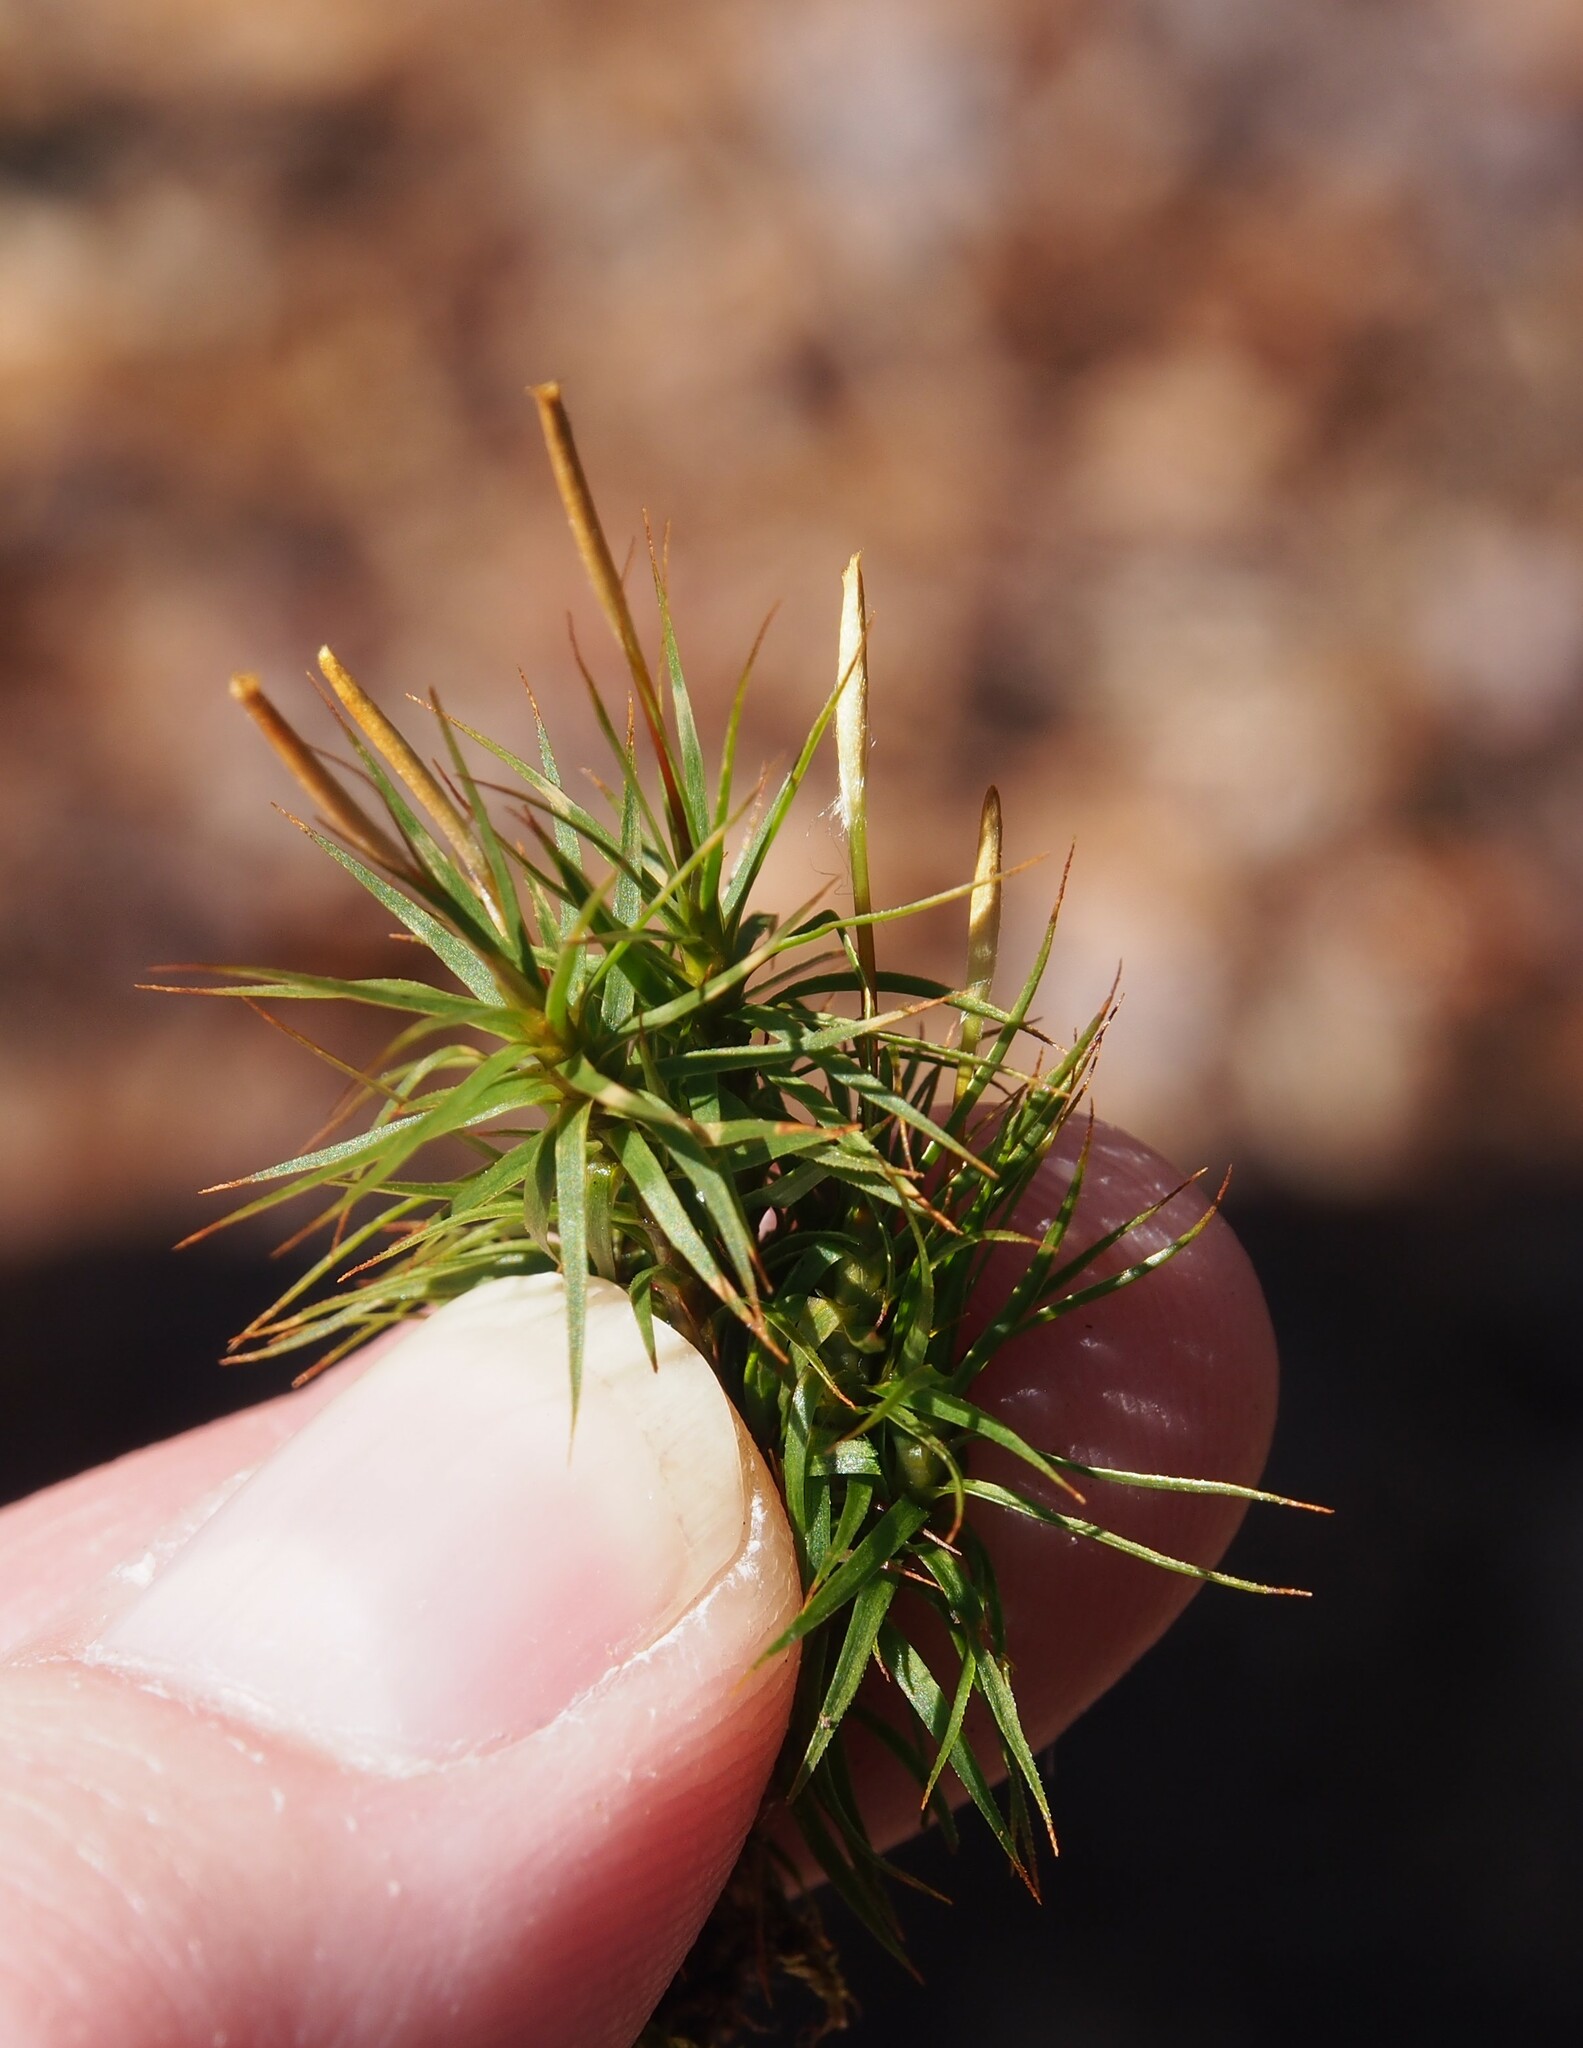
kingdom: Plantae
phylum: Bryophyta
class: Polytrichopsida
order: Polytrichales
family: Polytrichaceae
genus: Polytrichum
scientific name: Polytrichum ohioense
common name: Ohio polytrichum moss
